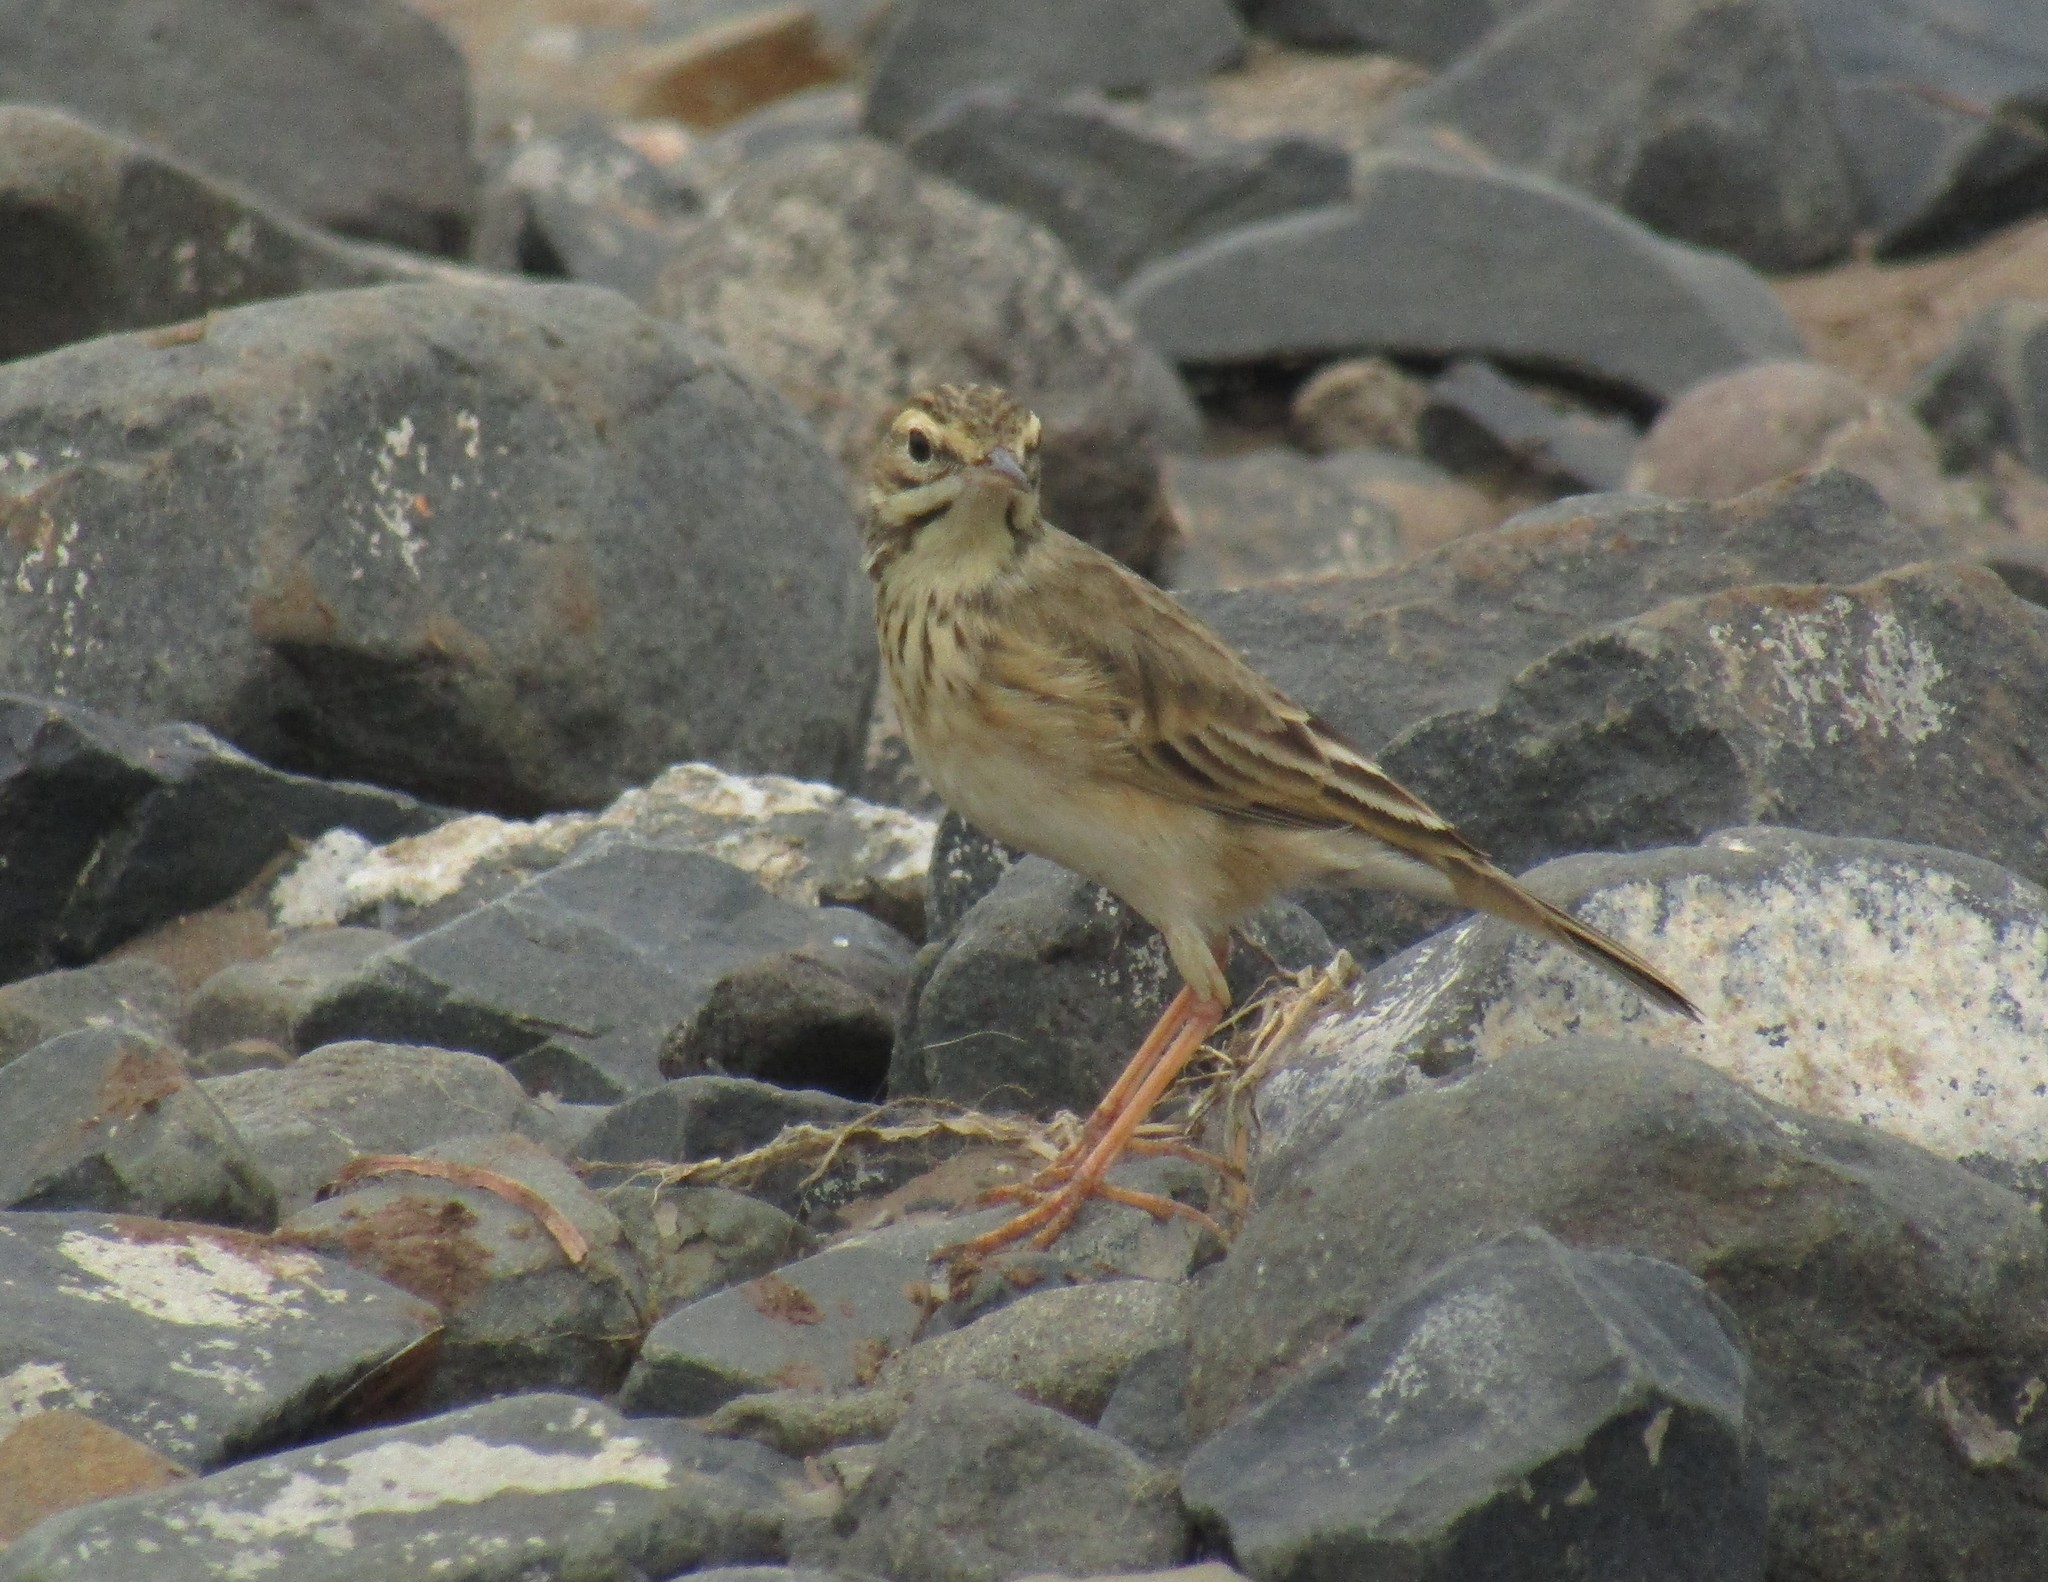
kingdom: Animalia
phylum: Chordata
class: Aves
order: Passeriformes
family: Motacillidae
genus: Anthus
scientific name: Anthus cinnamomeus
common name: African pipit
